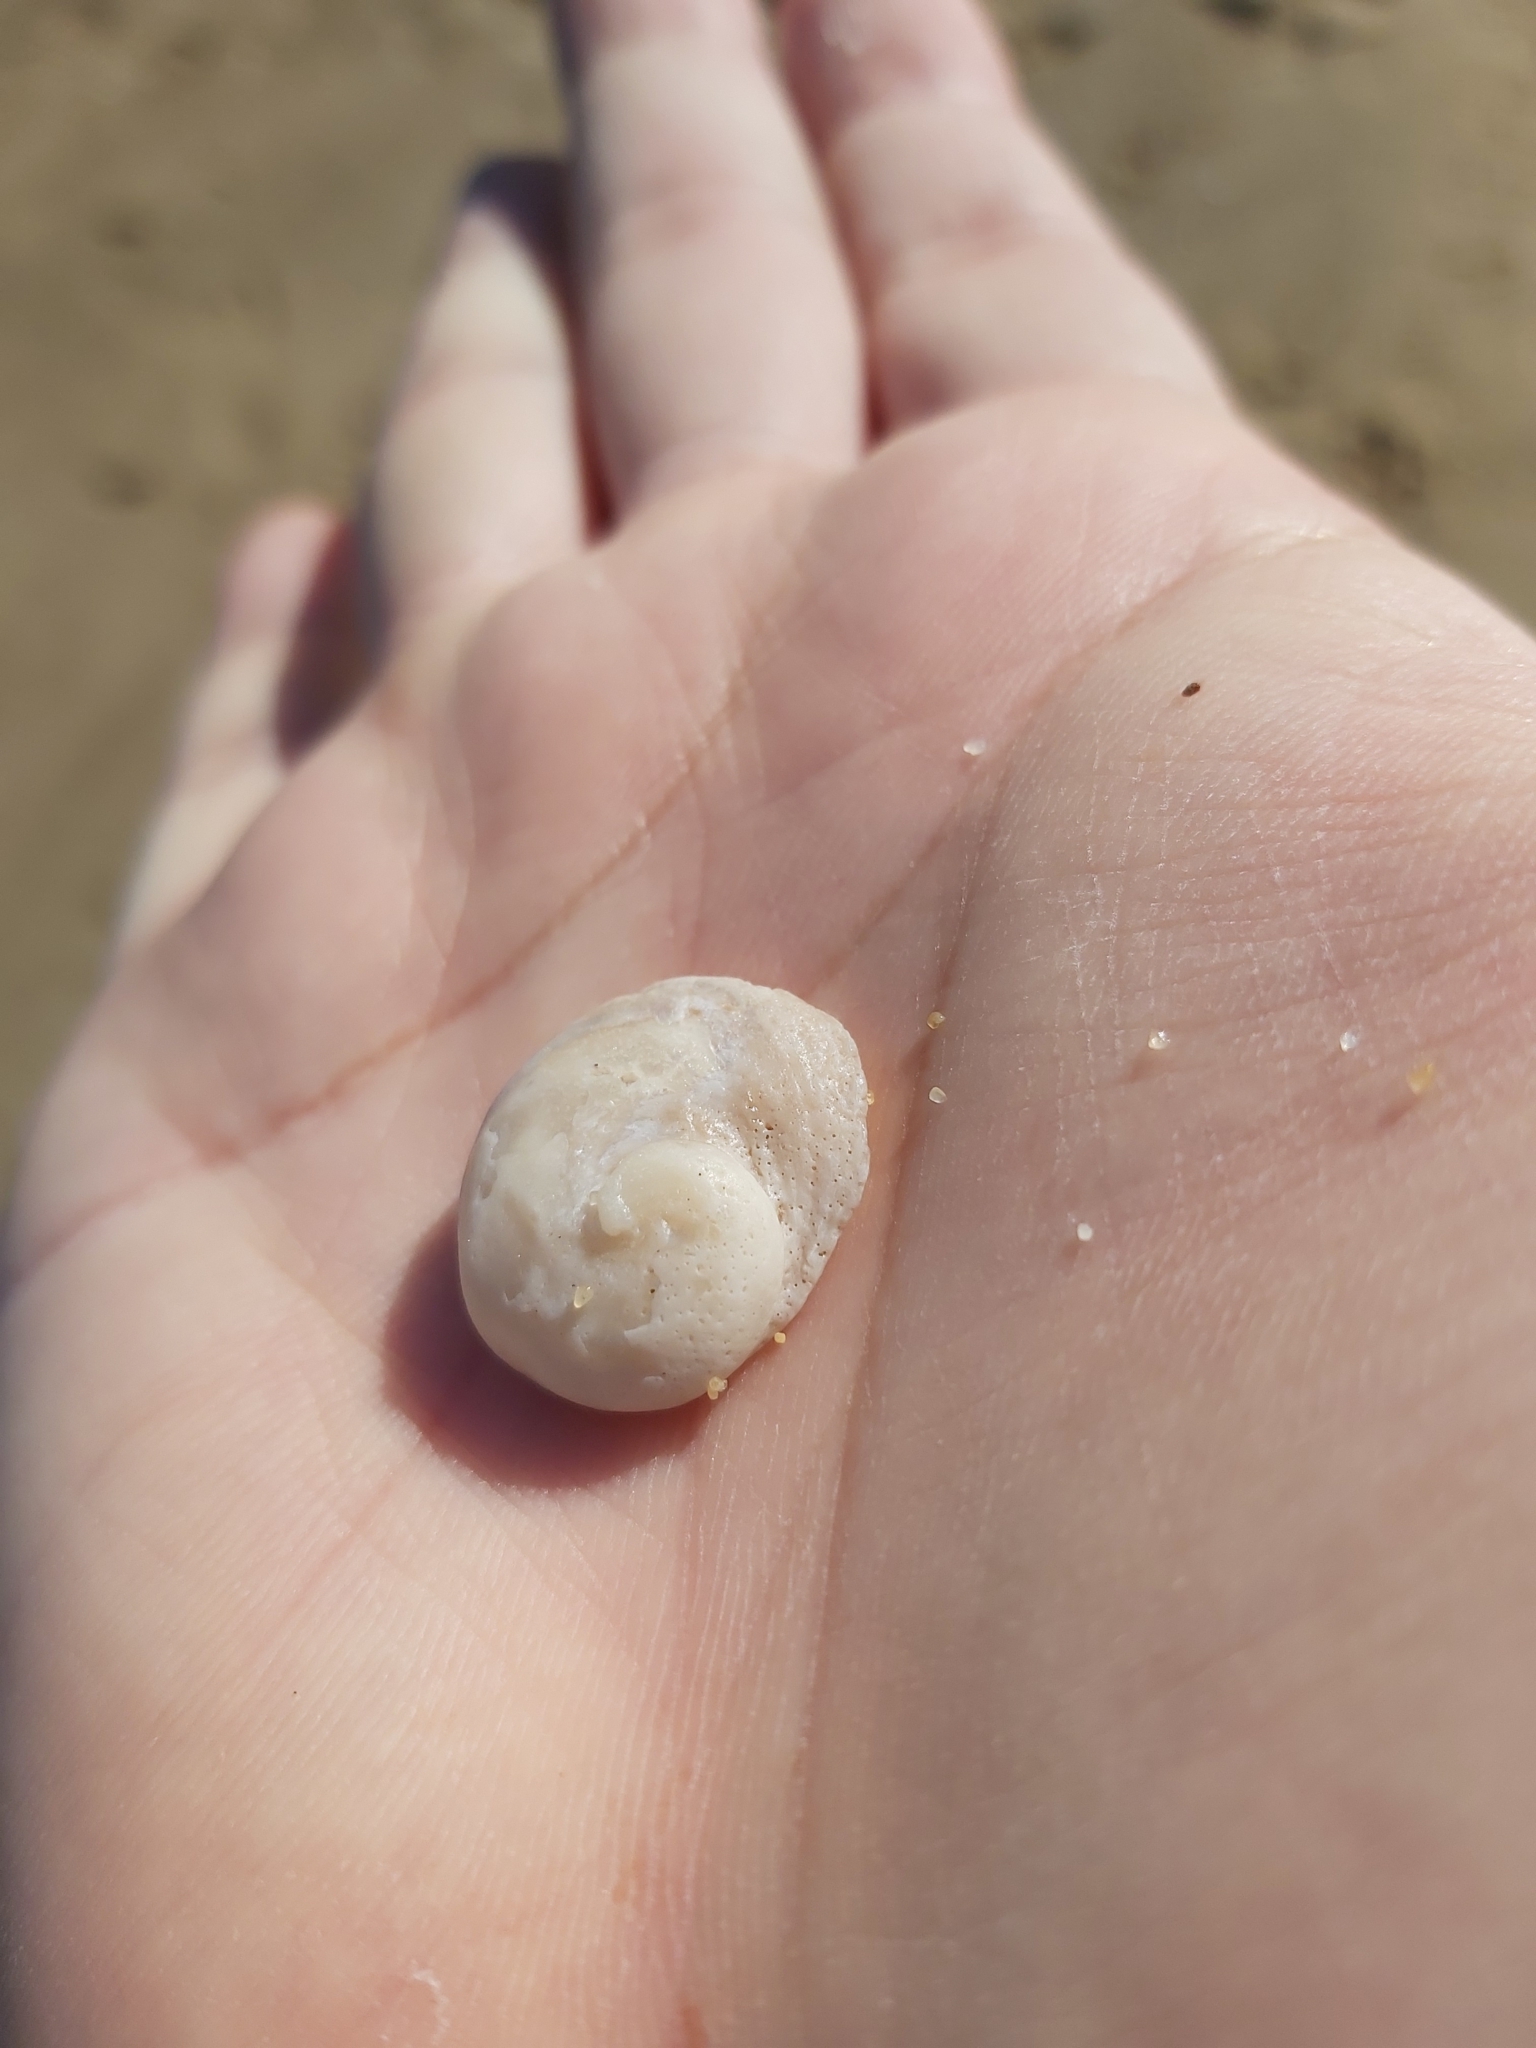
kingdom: Animalia
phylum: Mollusca
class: Gastropoda
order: Seguenziida
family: Chilodontaidae
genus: Granata
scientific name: Granata imbricata
